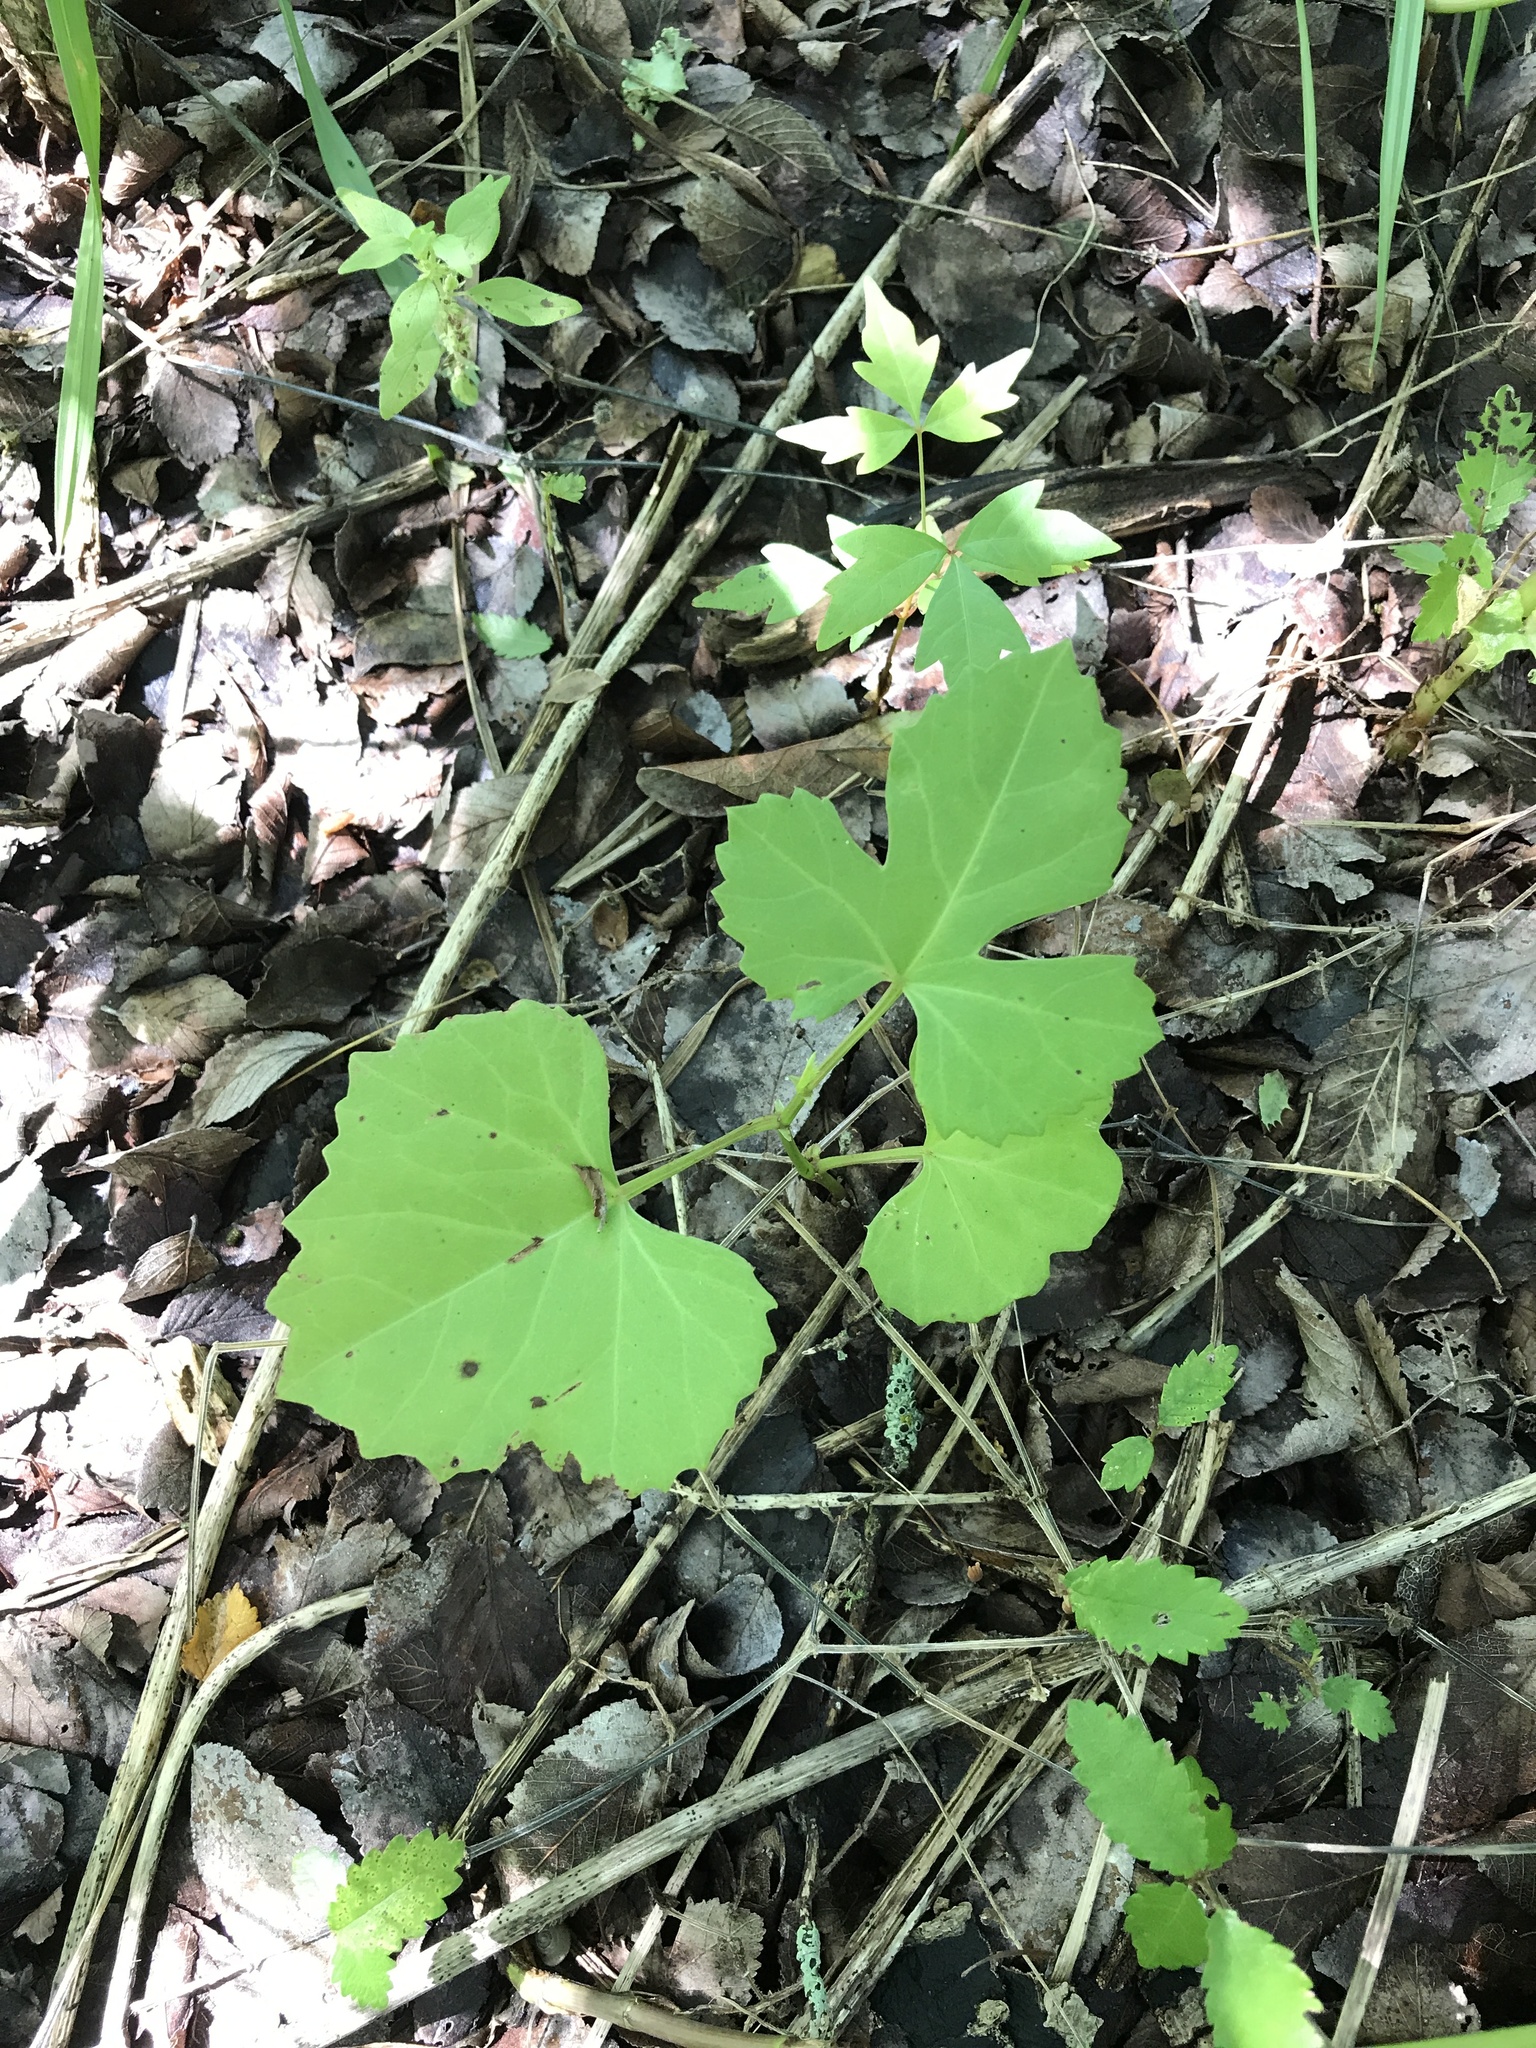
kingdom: Plantae
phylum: Tracheophyta
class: Magnoliopsida
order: Vitales
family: Vitaceae
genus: Cissus
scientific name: Cissus trifoliata
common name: Vine-sorrel
